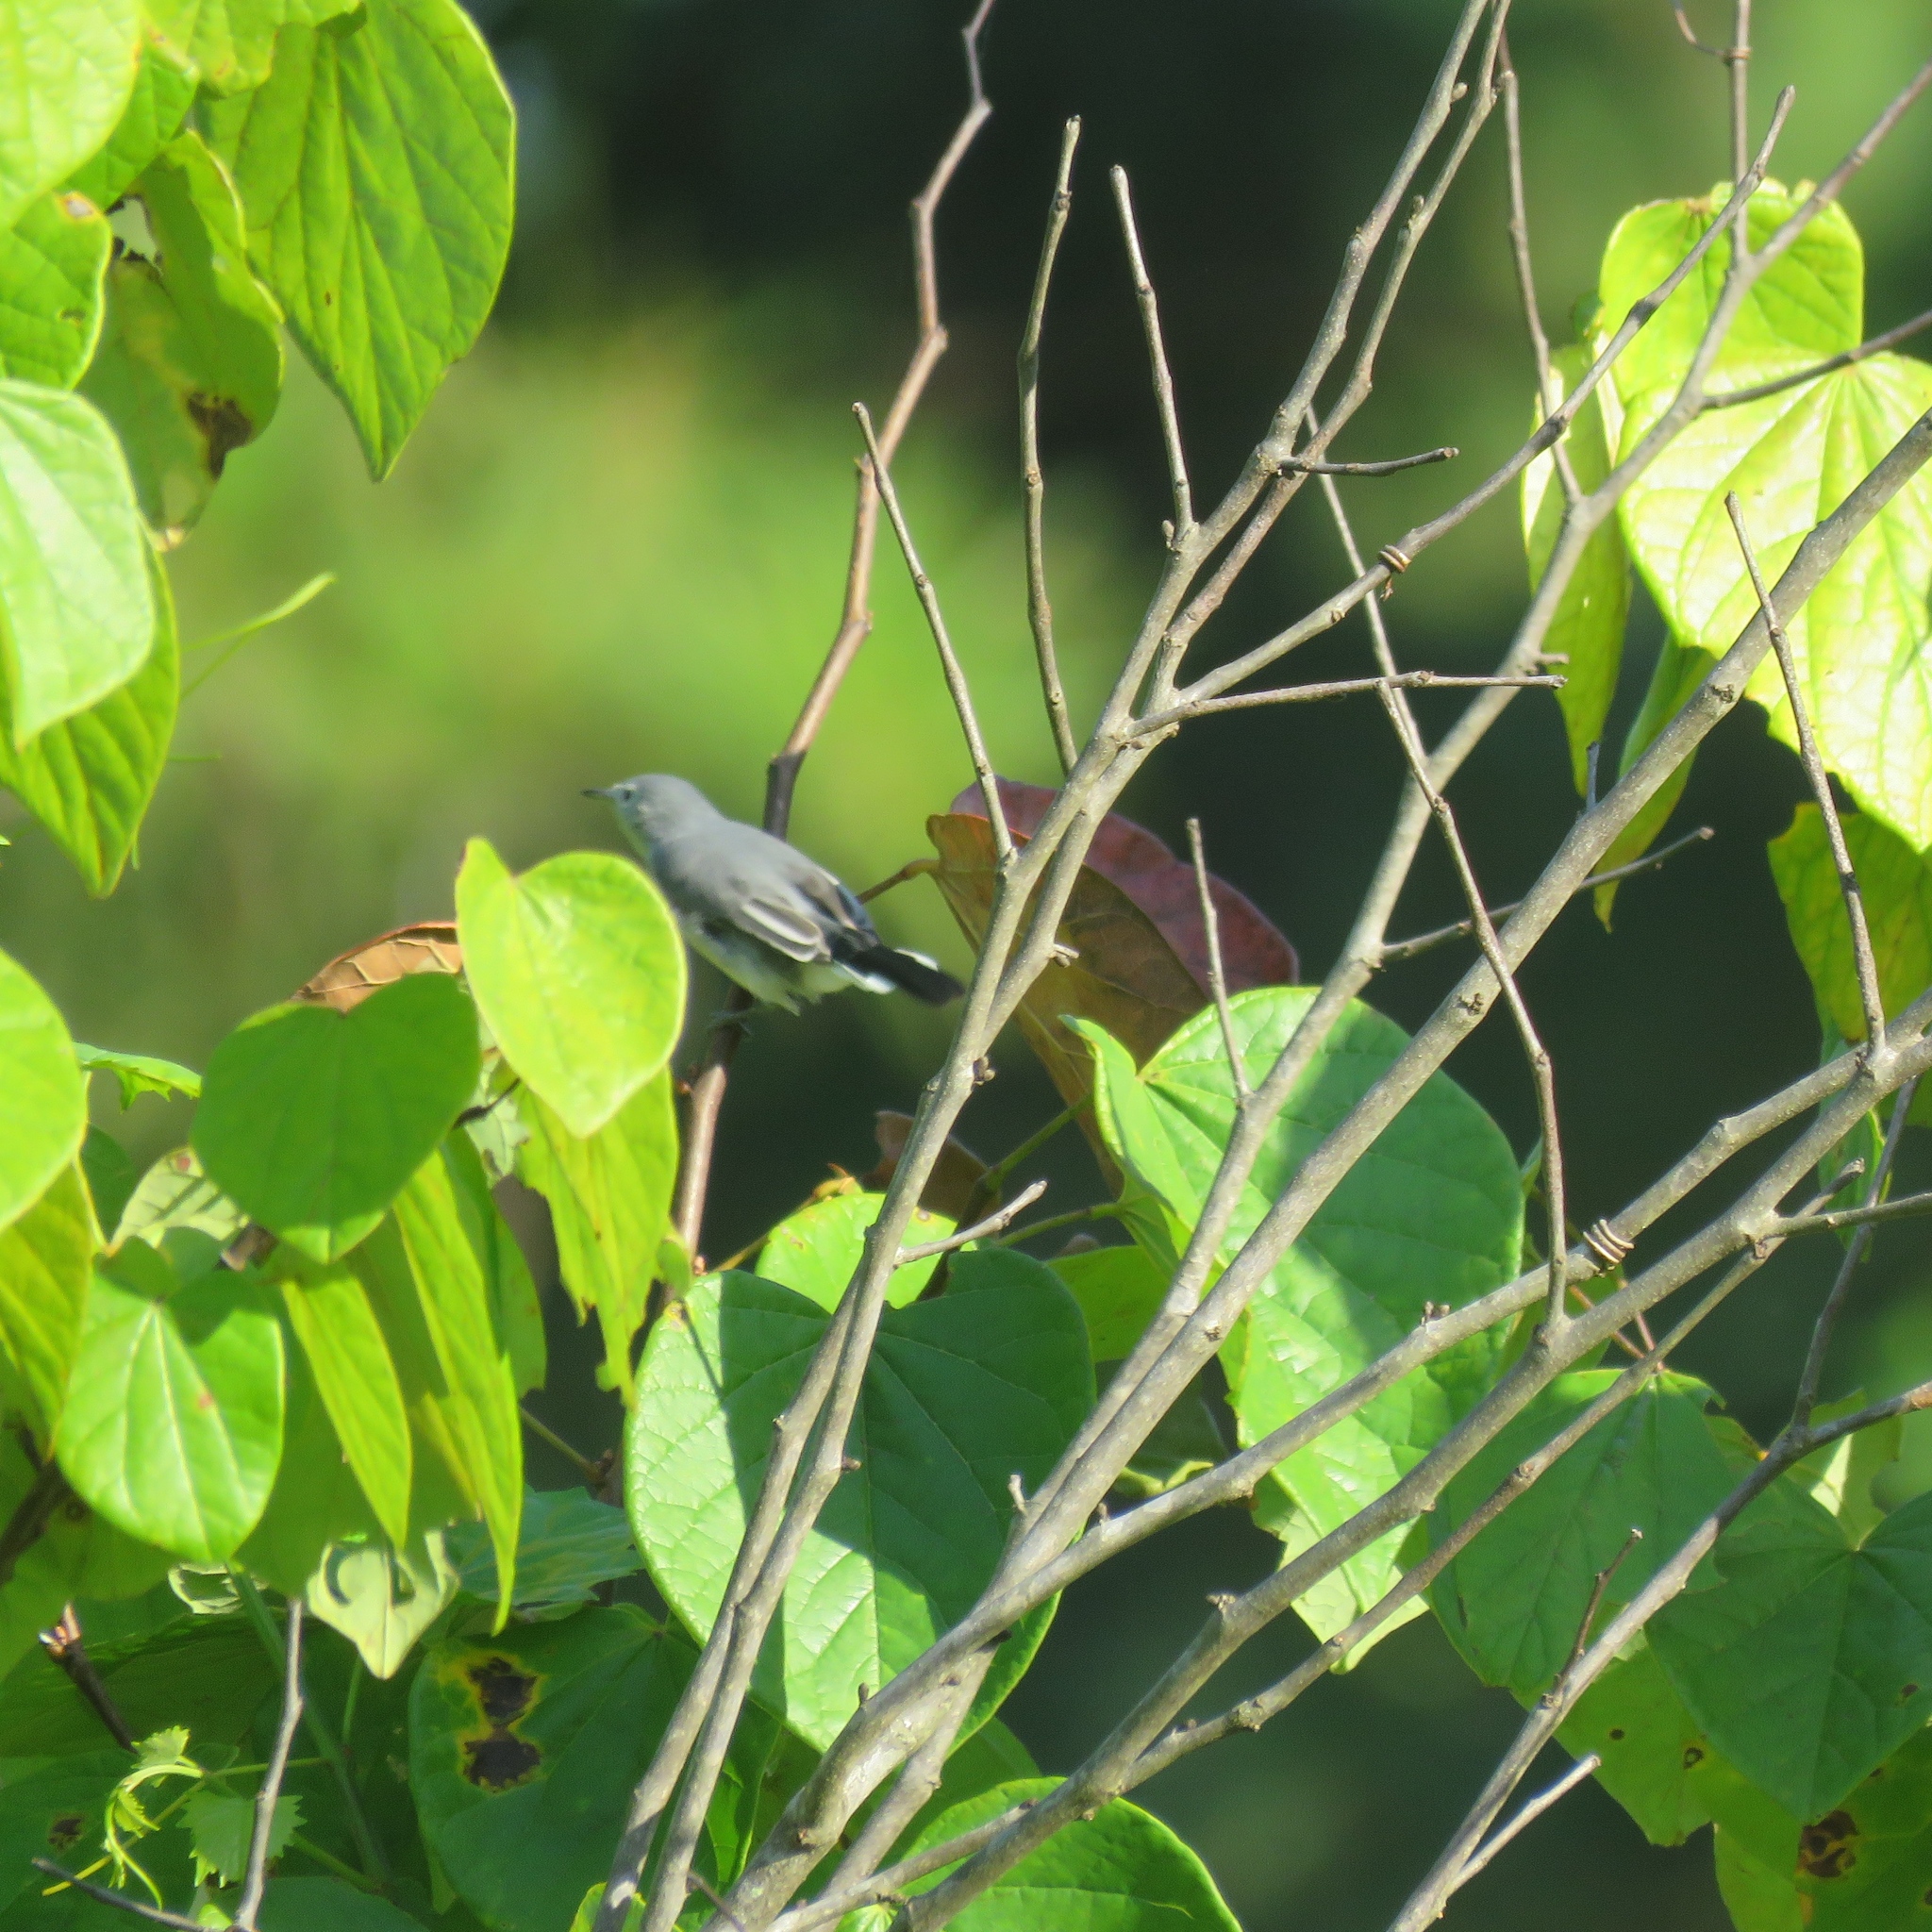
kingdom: Animalia
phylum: Chordata
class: Aves
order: Passeriformes
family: Polioptilidae
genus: Polioptila
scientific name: Polioptila caerulea
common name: Blue-gray gnatcatcher
